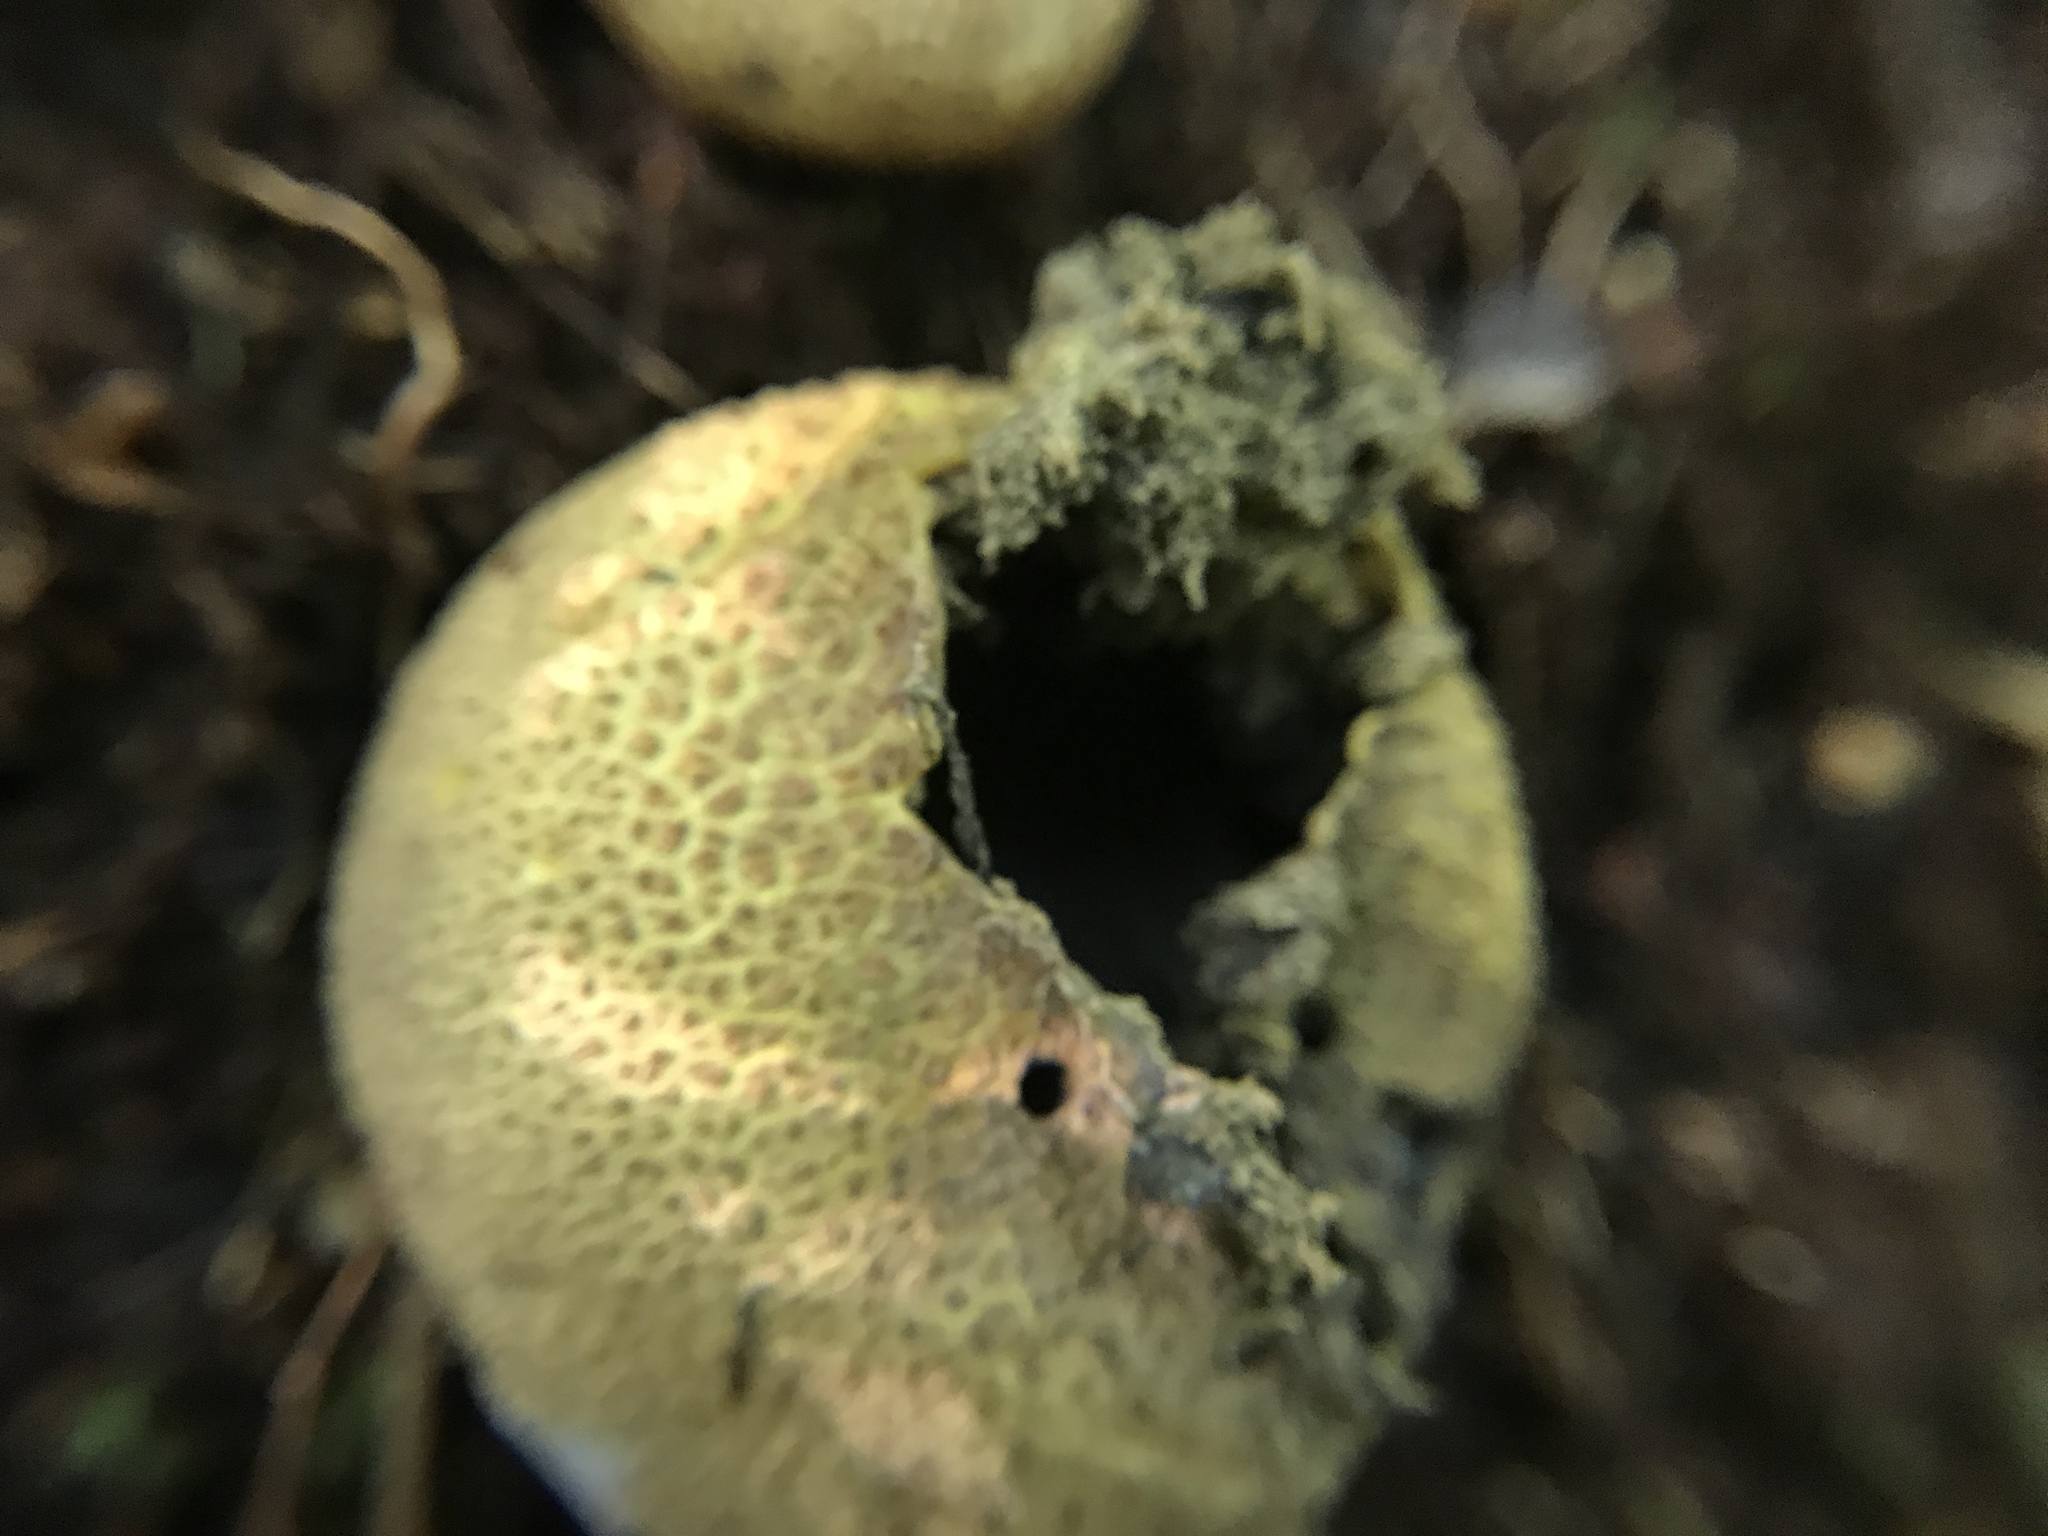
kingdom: Fungi
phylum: Basidiomycota
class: Agaricomycetes
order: Boletales
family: Sclerodermataceae
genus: Scleroderma
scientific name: Scleroderma citrinum
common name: Common earthball
